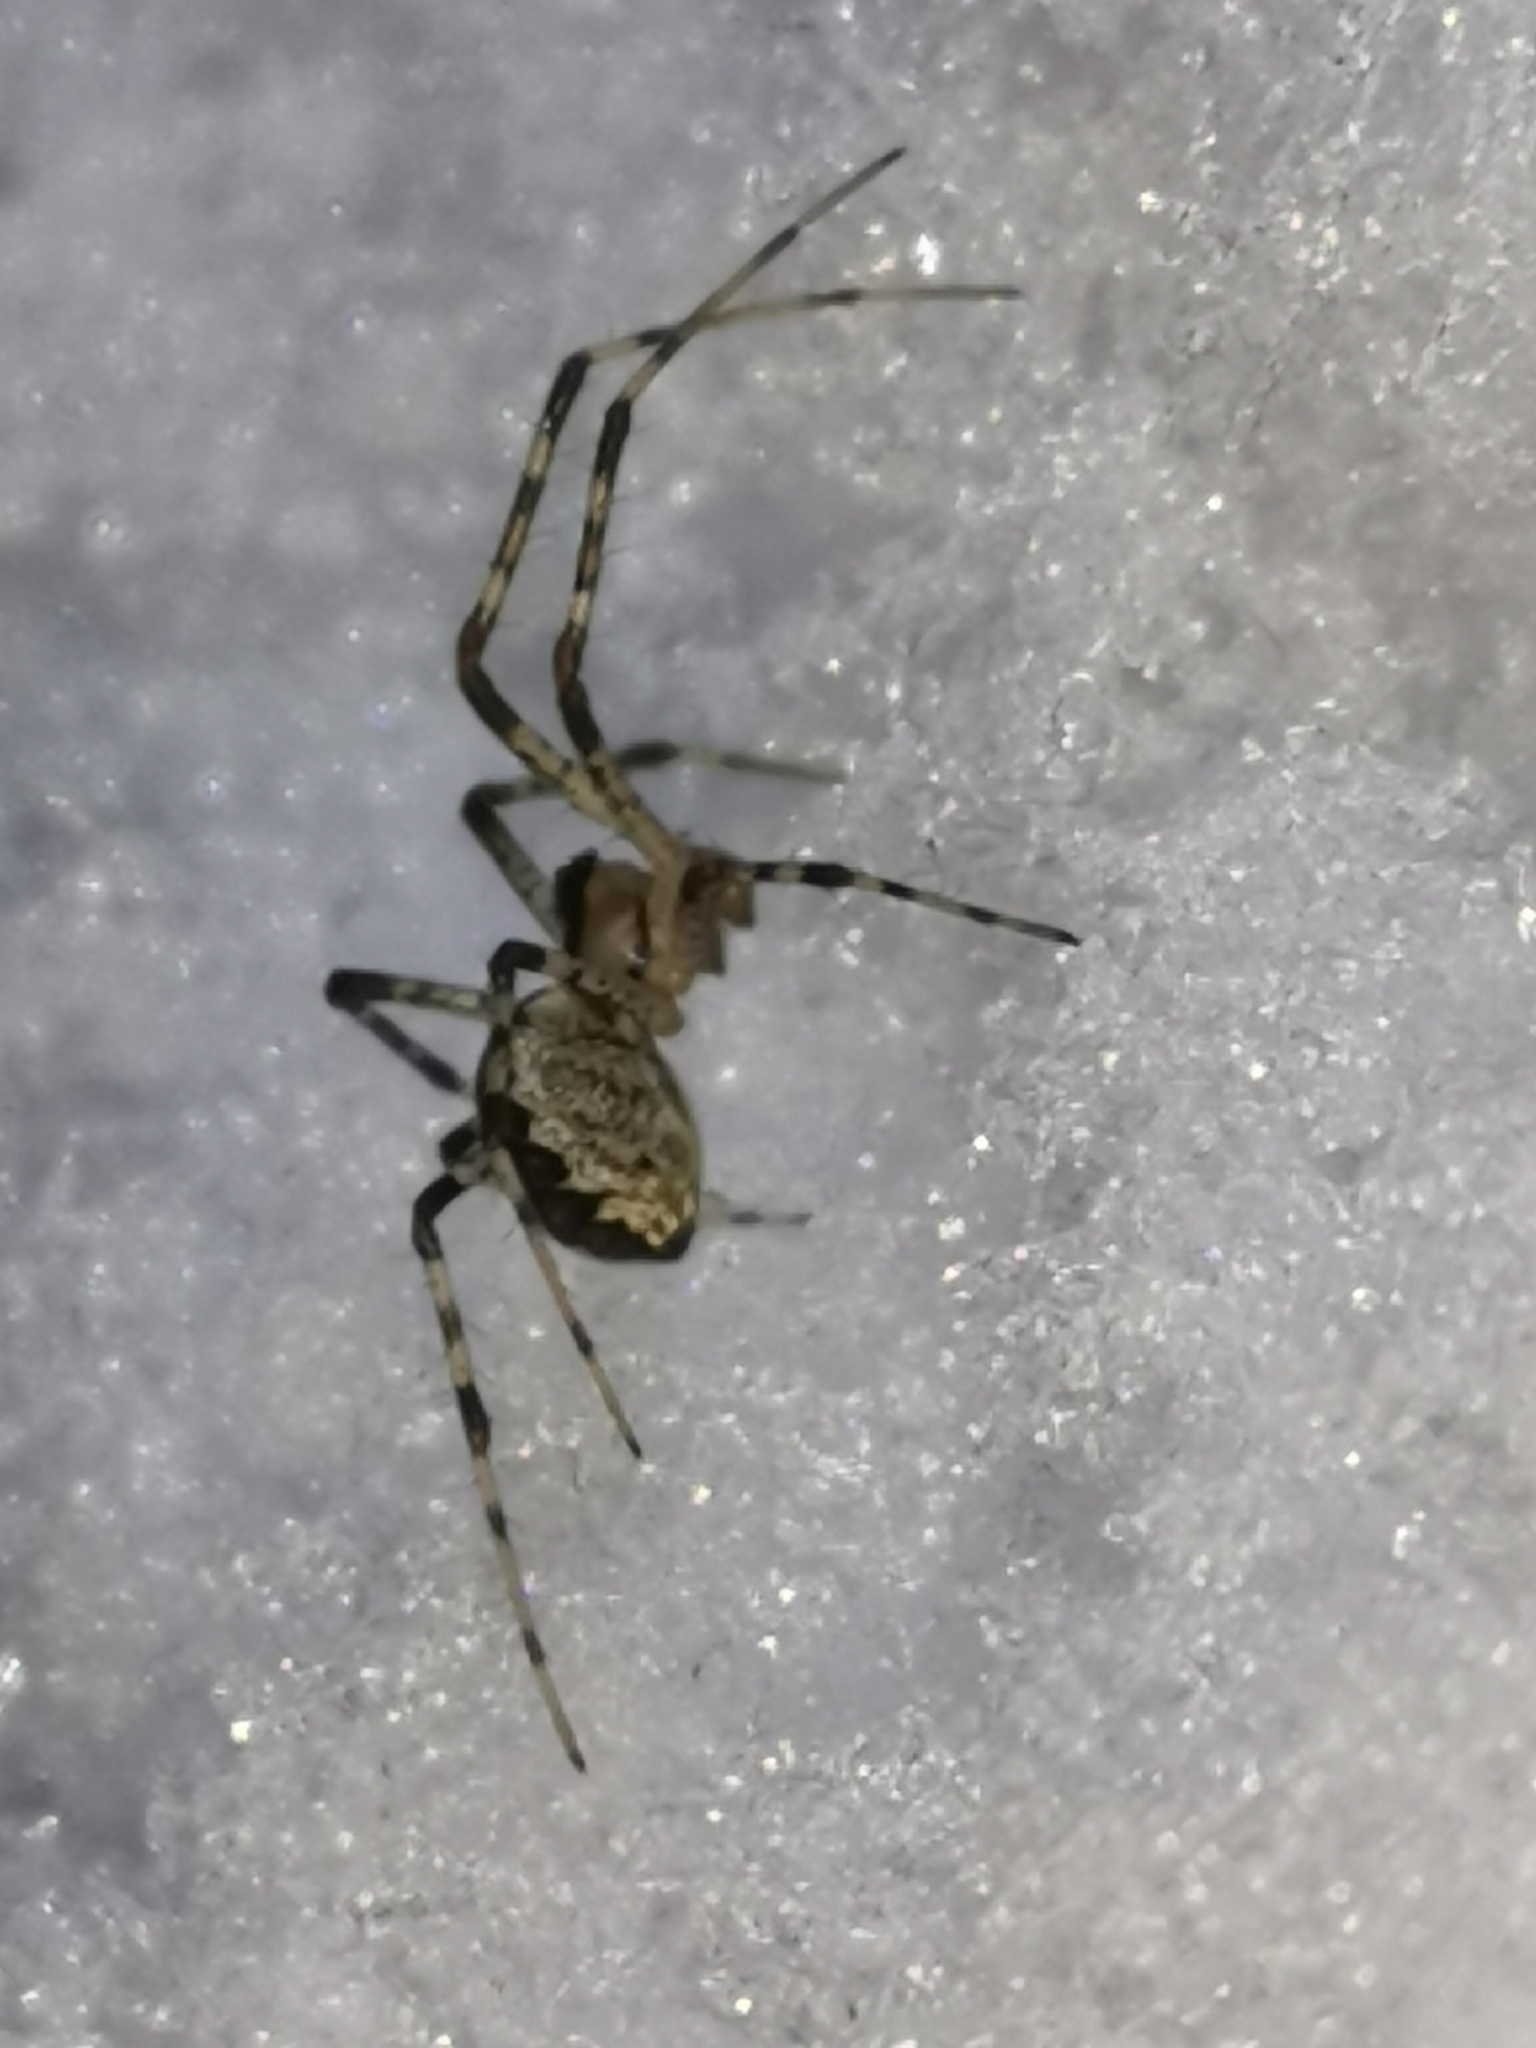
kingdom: Animalia
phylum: Arthropoda
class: Arachnida
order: Araneae
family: Linyphiidae
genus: Pityohyphantes
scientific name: Pityohyphantes phrygianus
